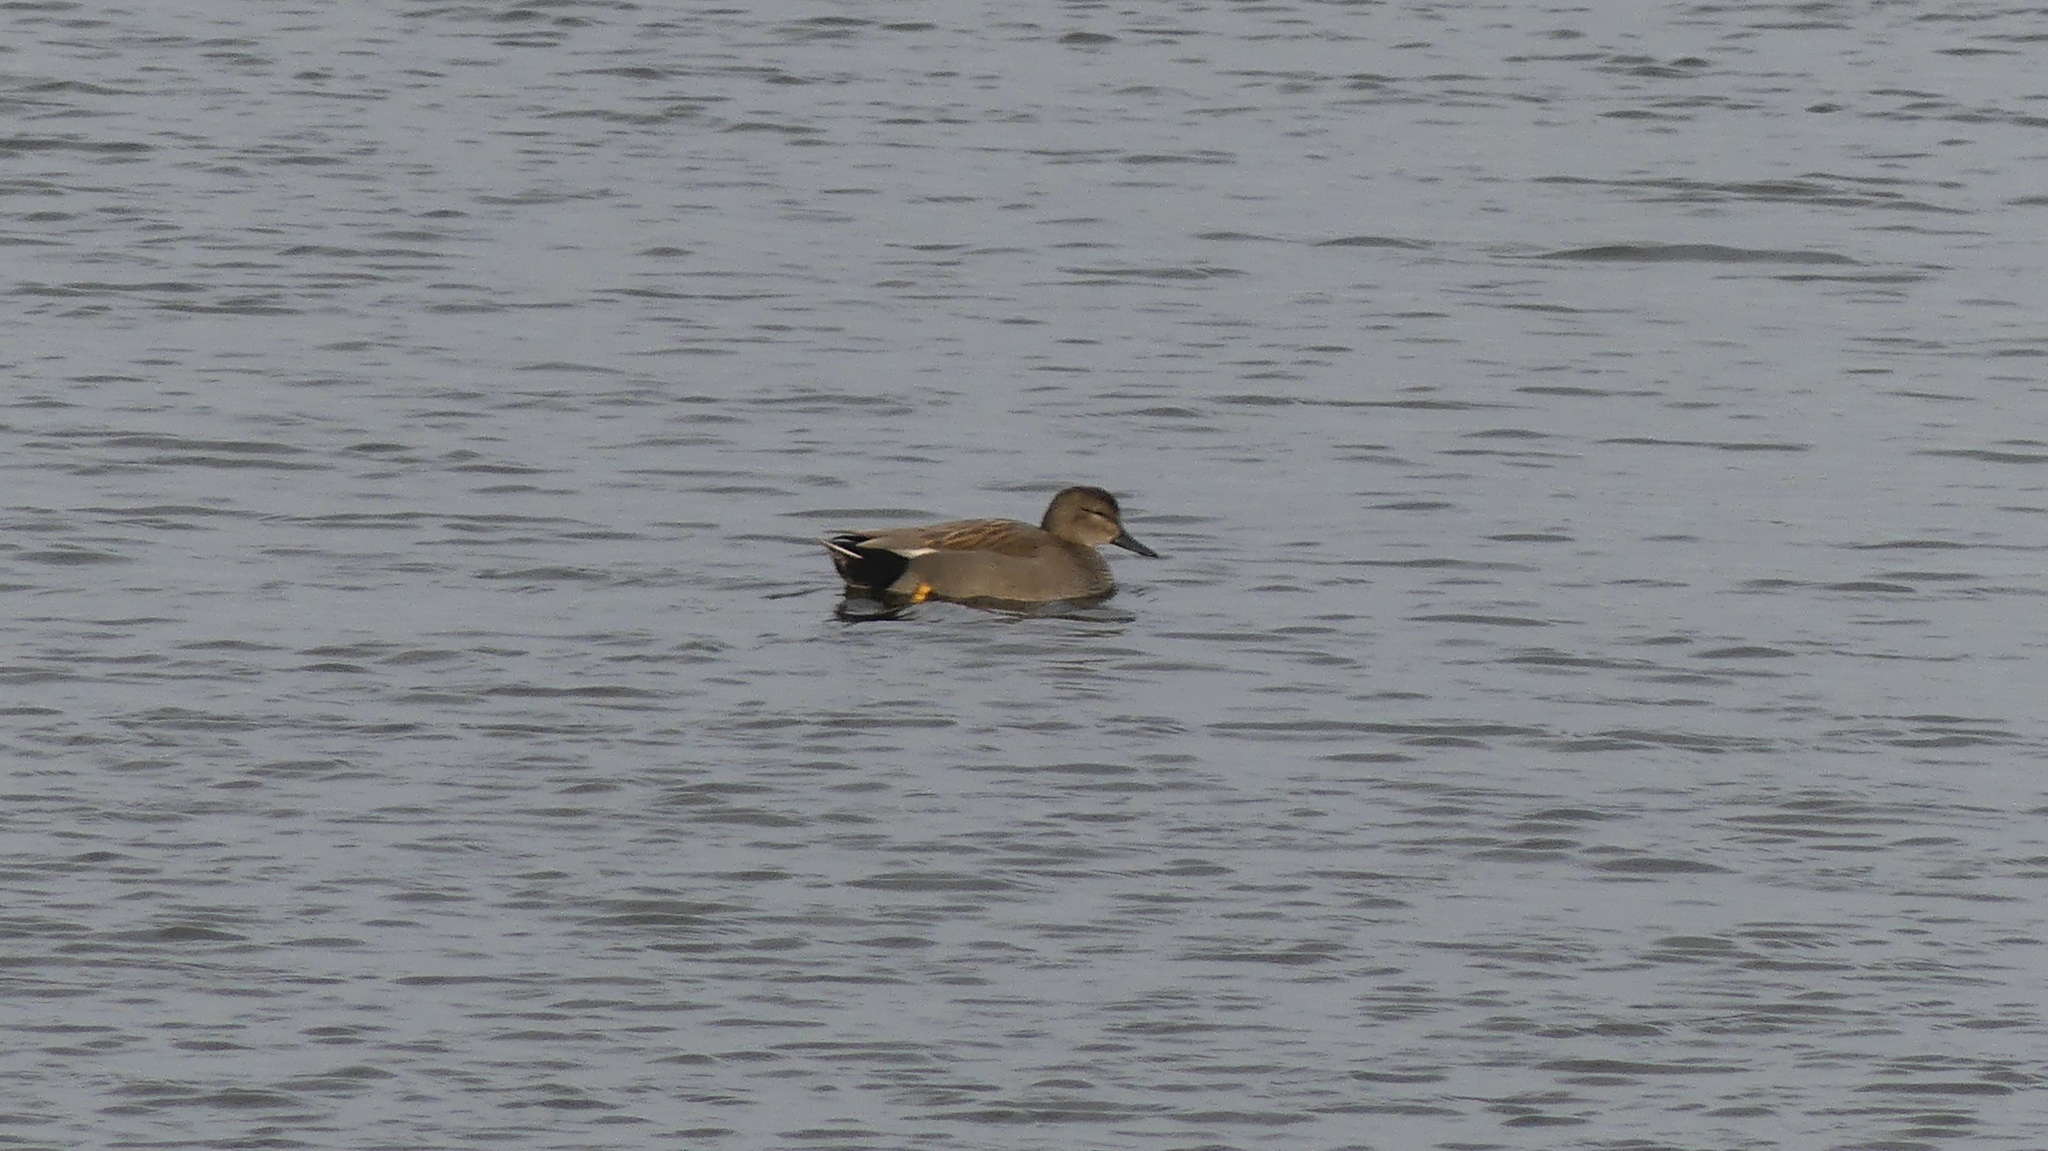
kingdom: Animalia
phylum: Chordata
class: Aves
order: Anseriformes
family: Anatidae
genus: Mareca
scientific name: Mareca strepera
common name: Gadwall
